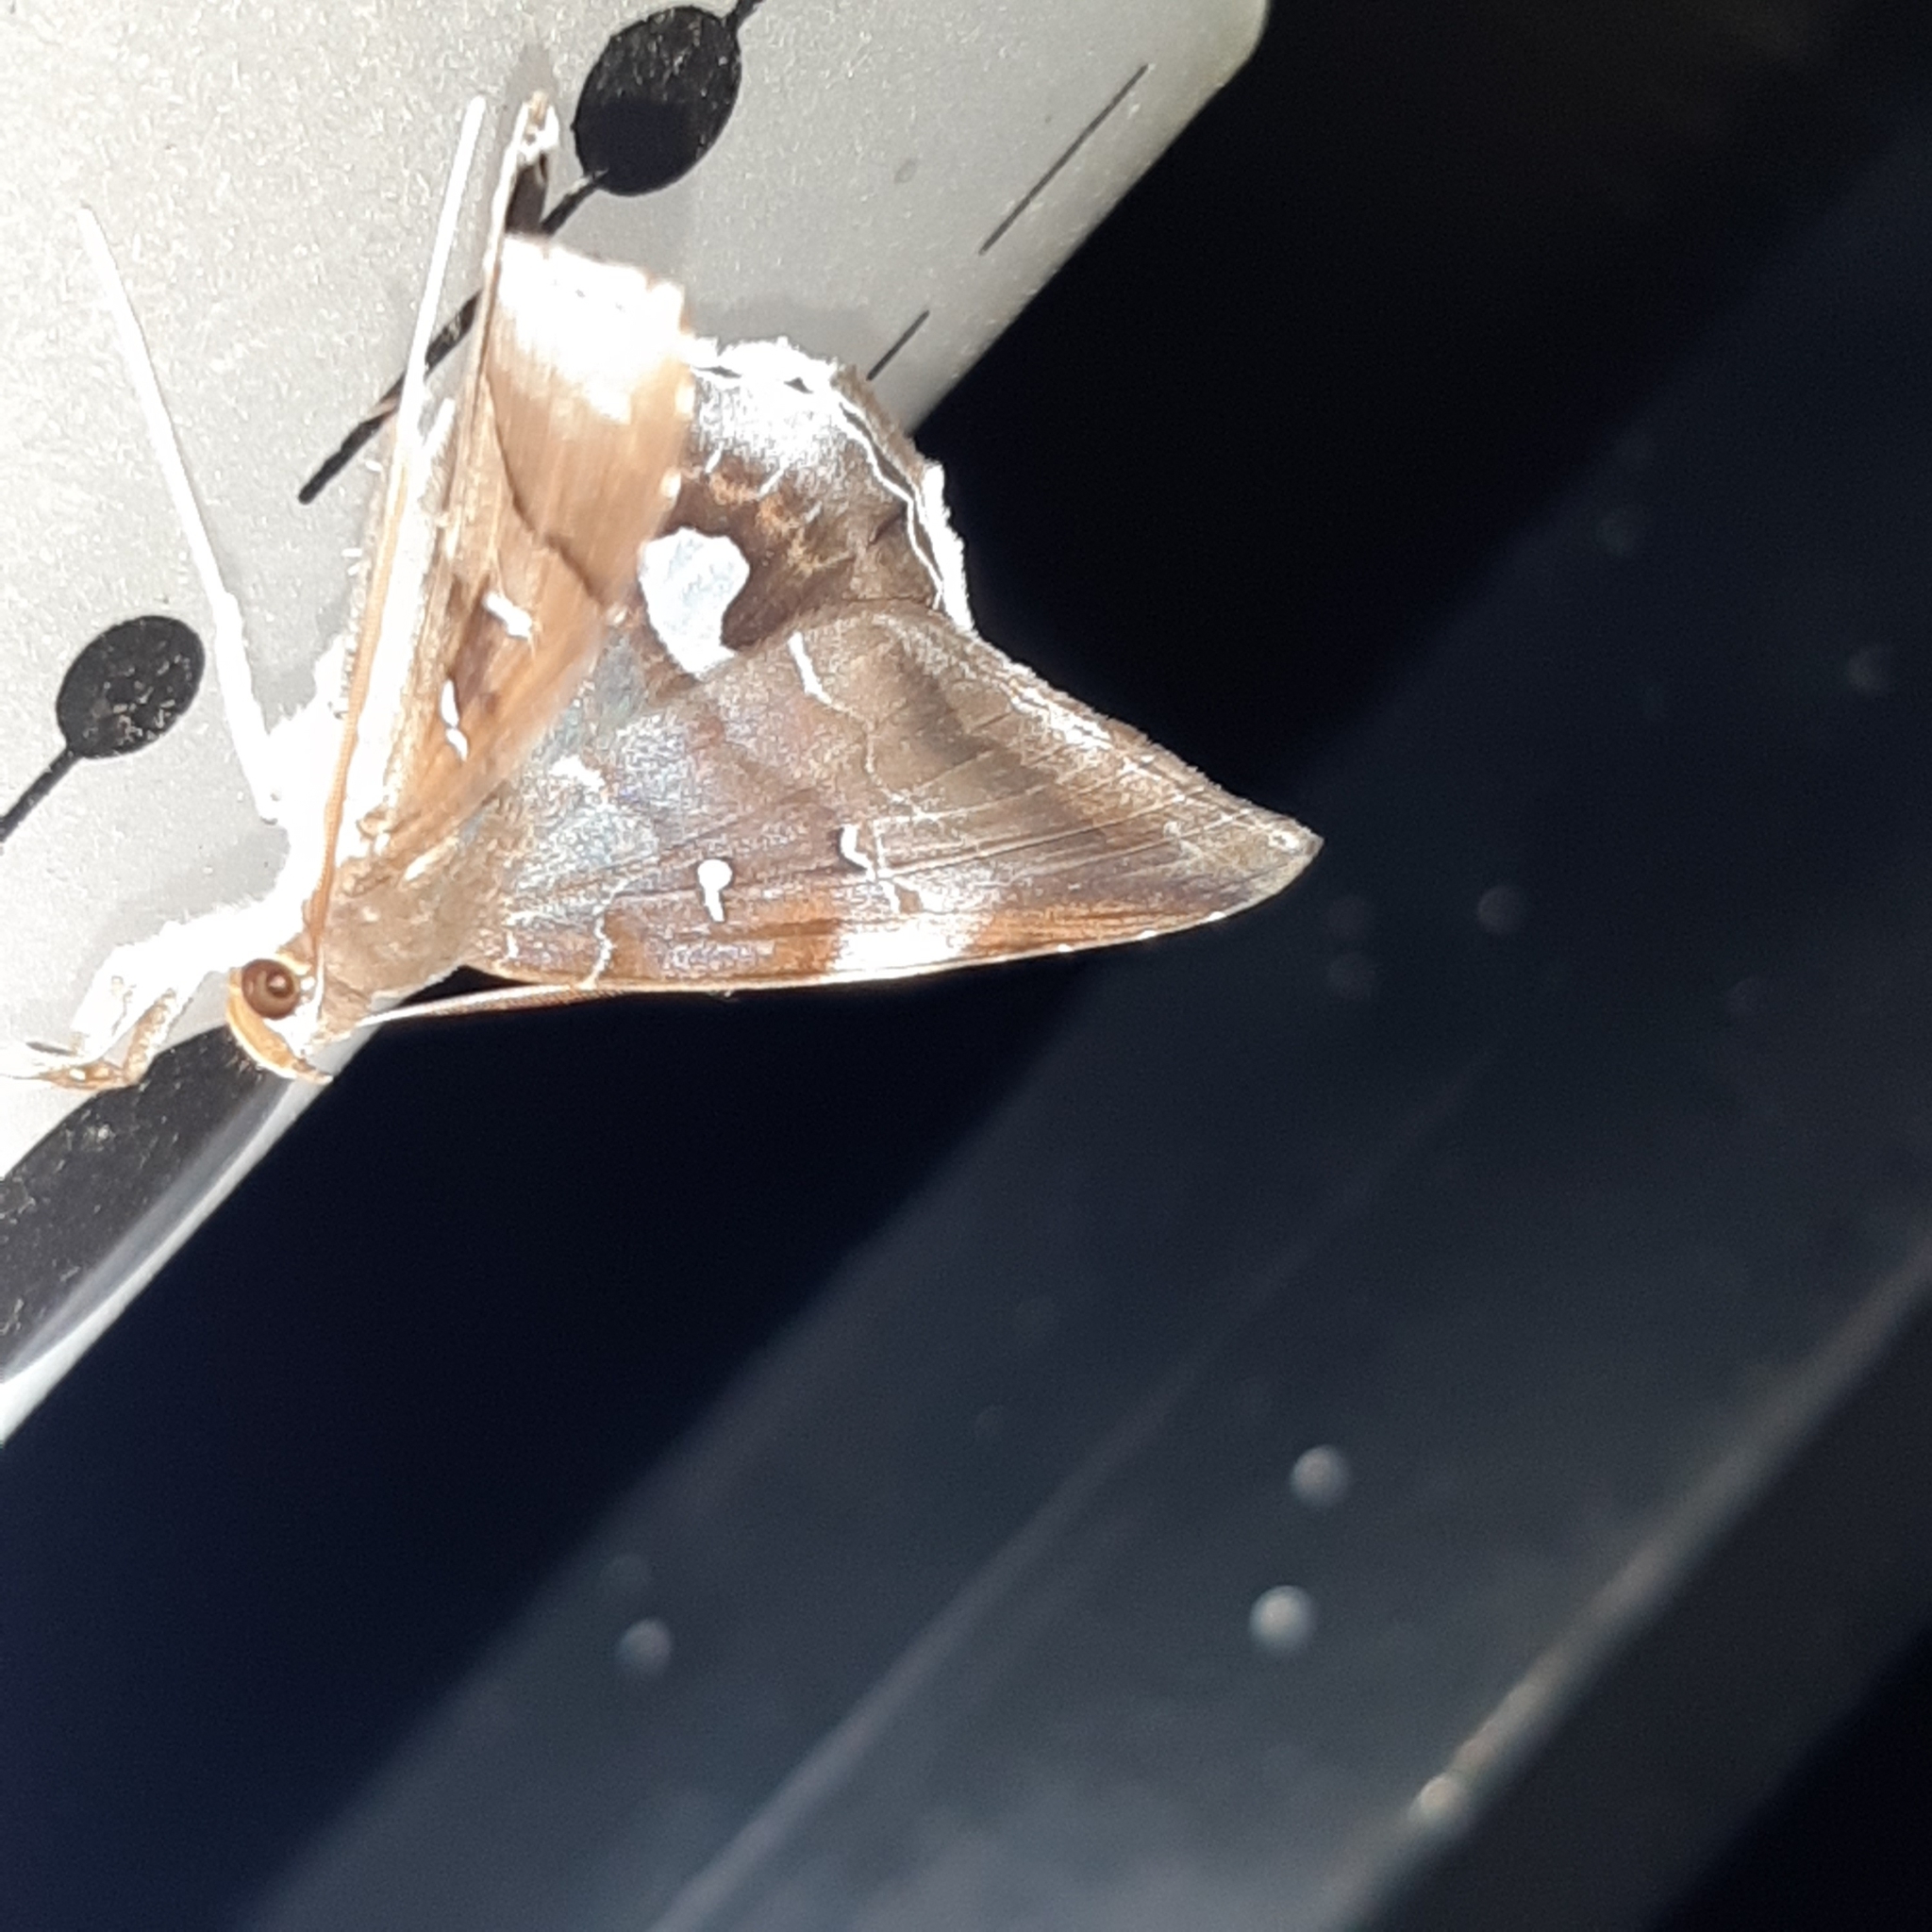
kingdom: Animalia
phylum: Arthropoda
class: Insecta
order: Lepidoptera
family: Erebidae
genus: Macrodes
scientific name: Macrodes cynara
